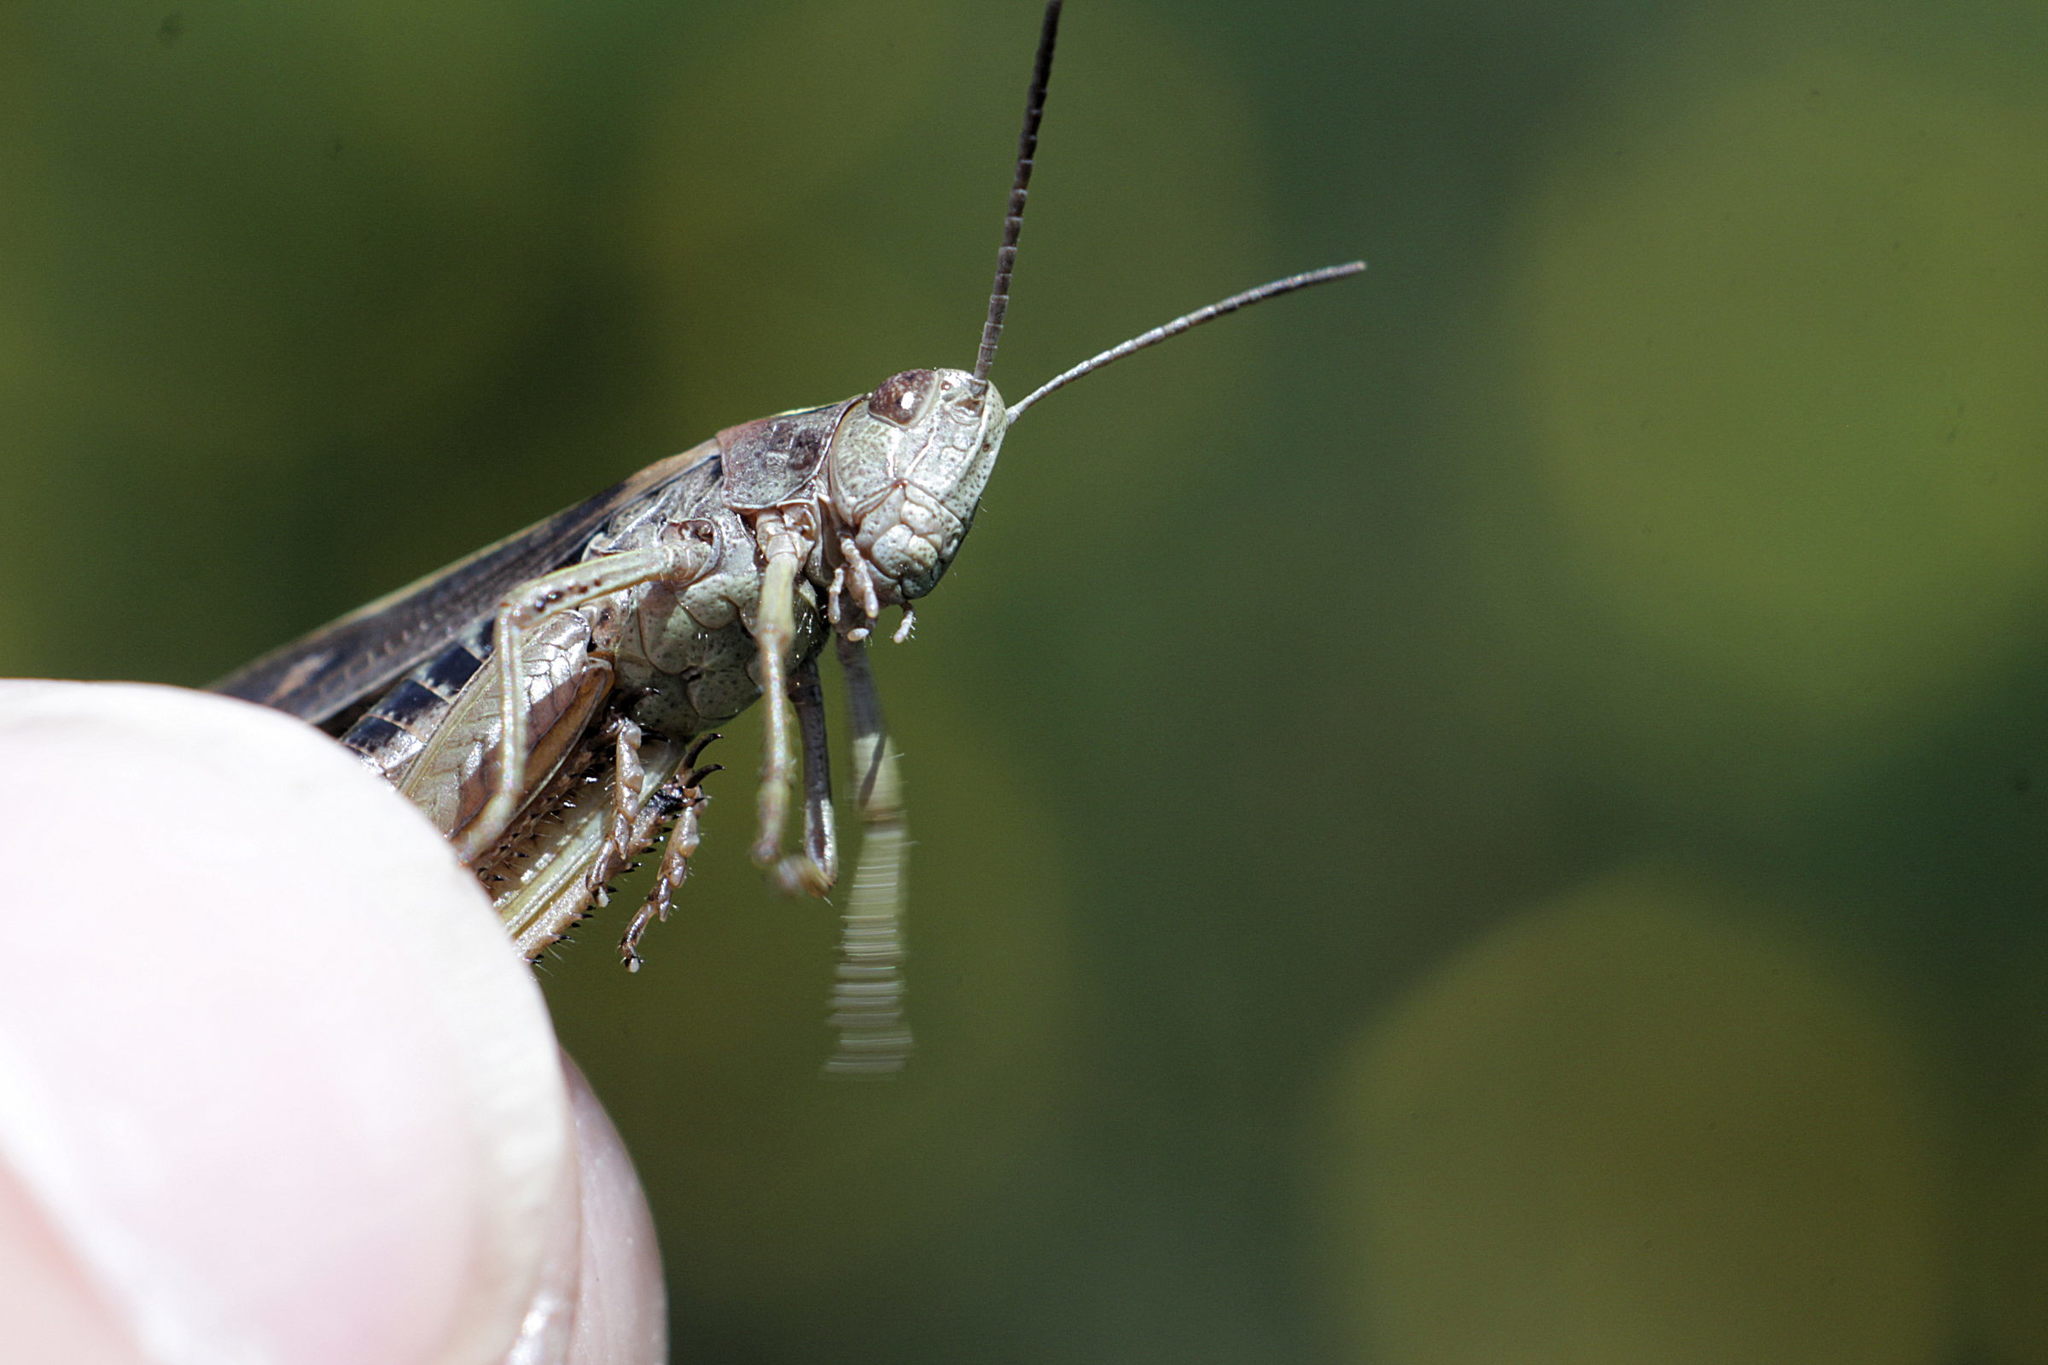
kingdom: Animalia
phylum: Arthropoda
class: Insecta
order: Orthoptera
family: Acrididae
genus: Omocestus
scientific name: Omocestus viridulus
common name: Common green grasshopper
